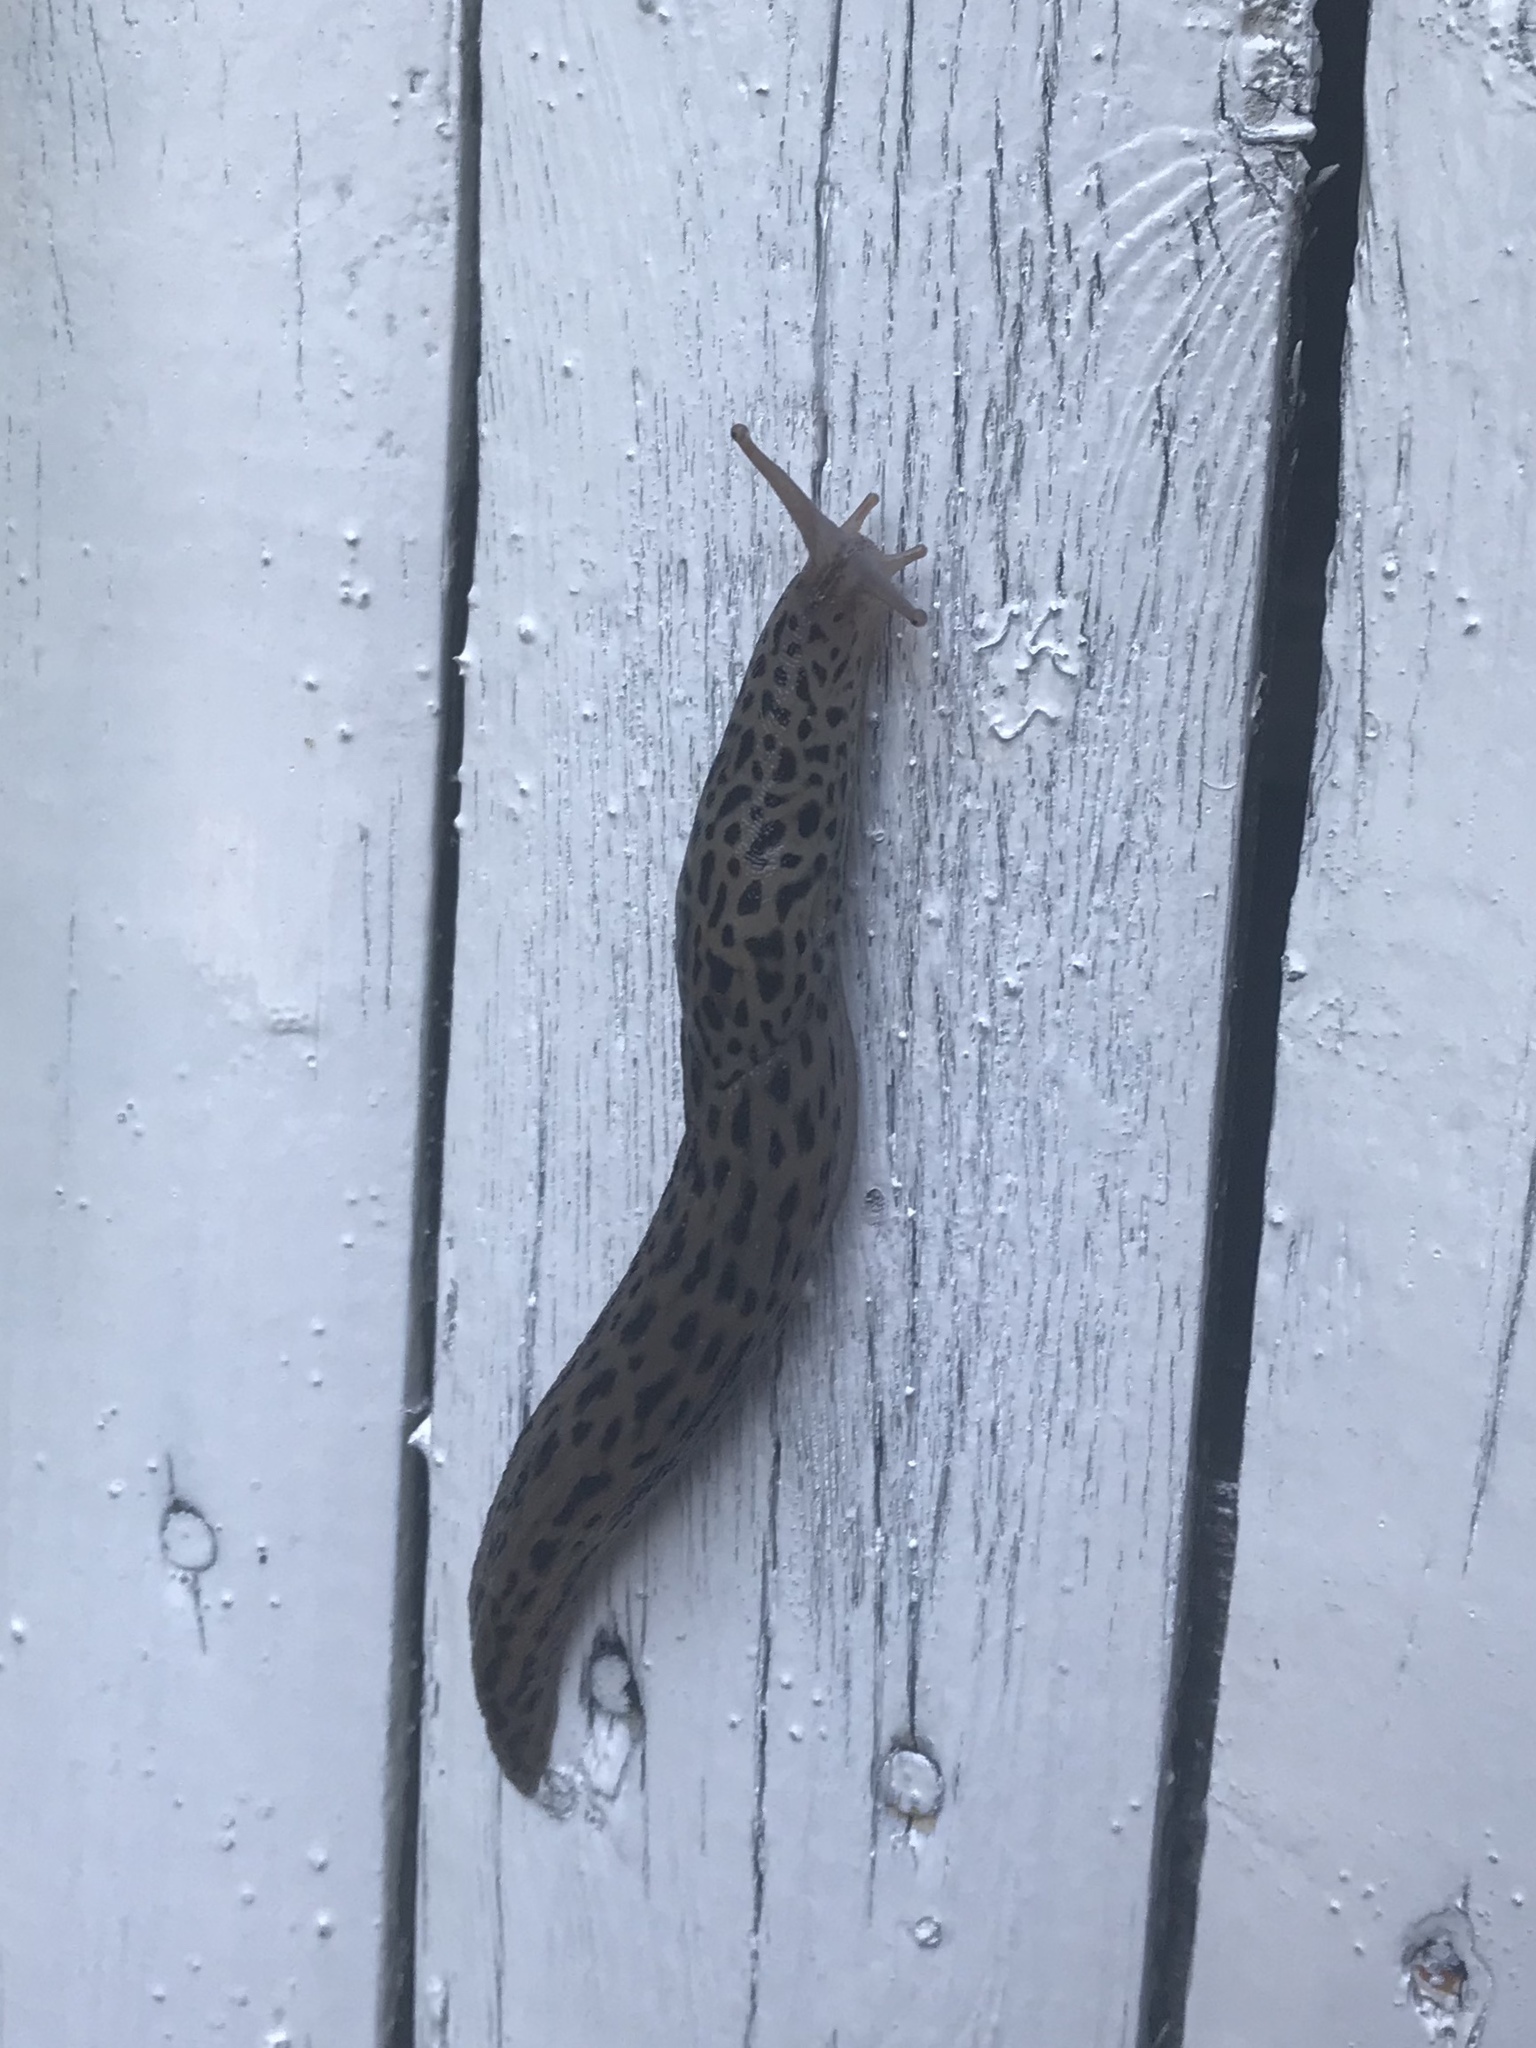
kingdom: Animalia
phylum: Mollusca
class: Gastropoda
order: Stylommatophora
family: Limacidae
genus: Limax
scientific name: Limax maximus
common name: Great grey slug
